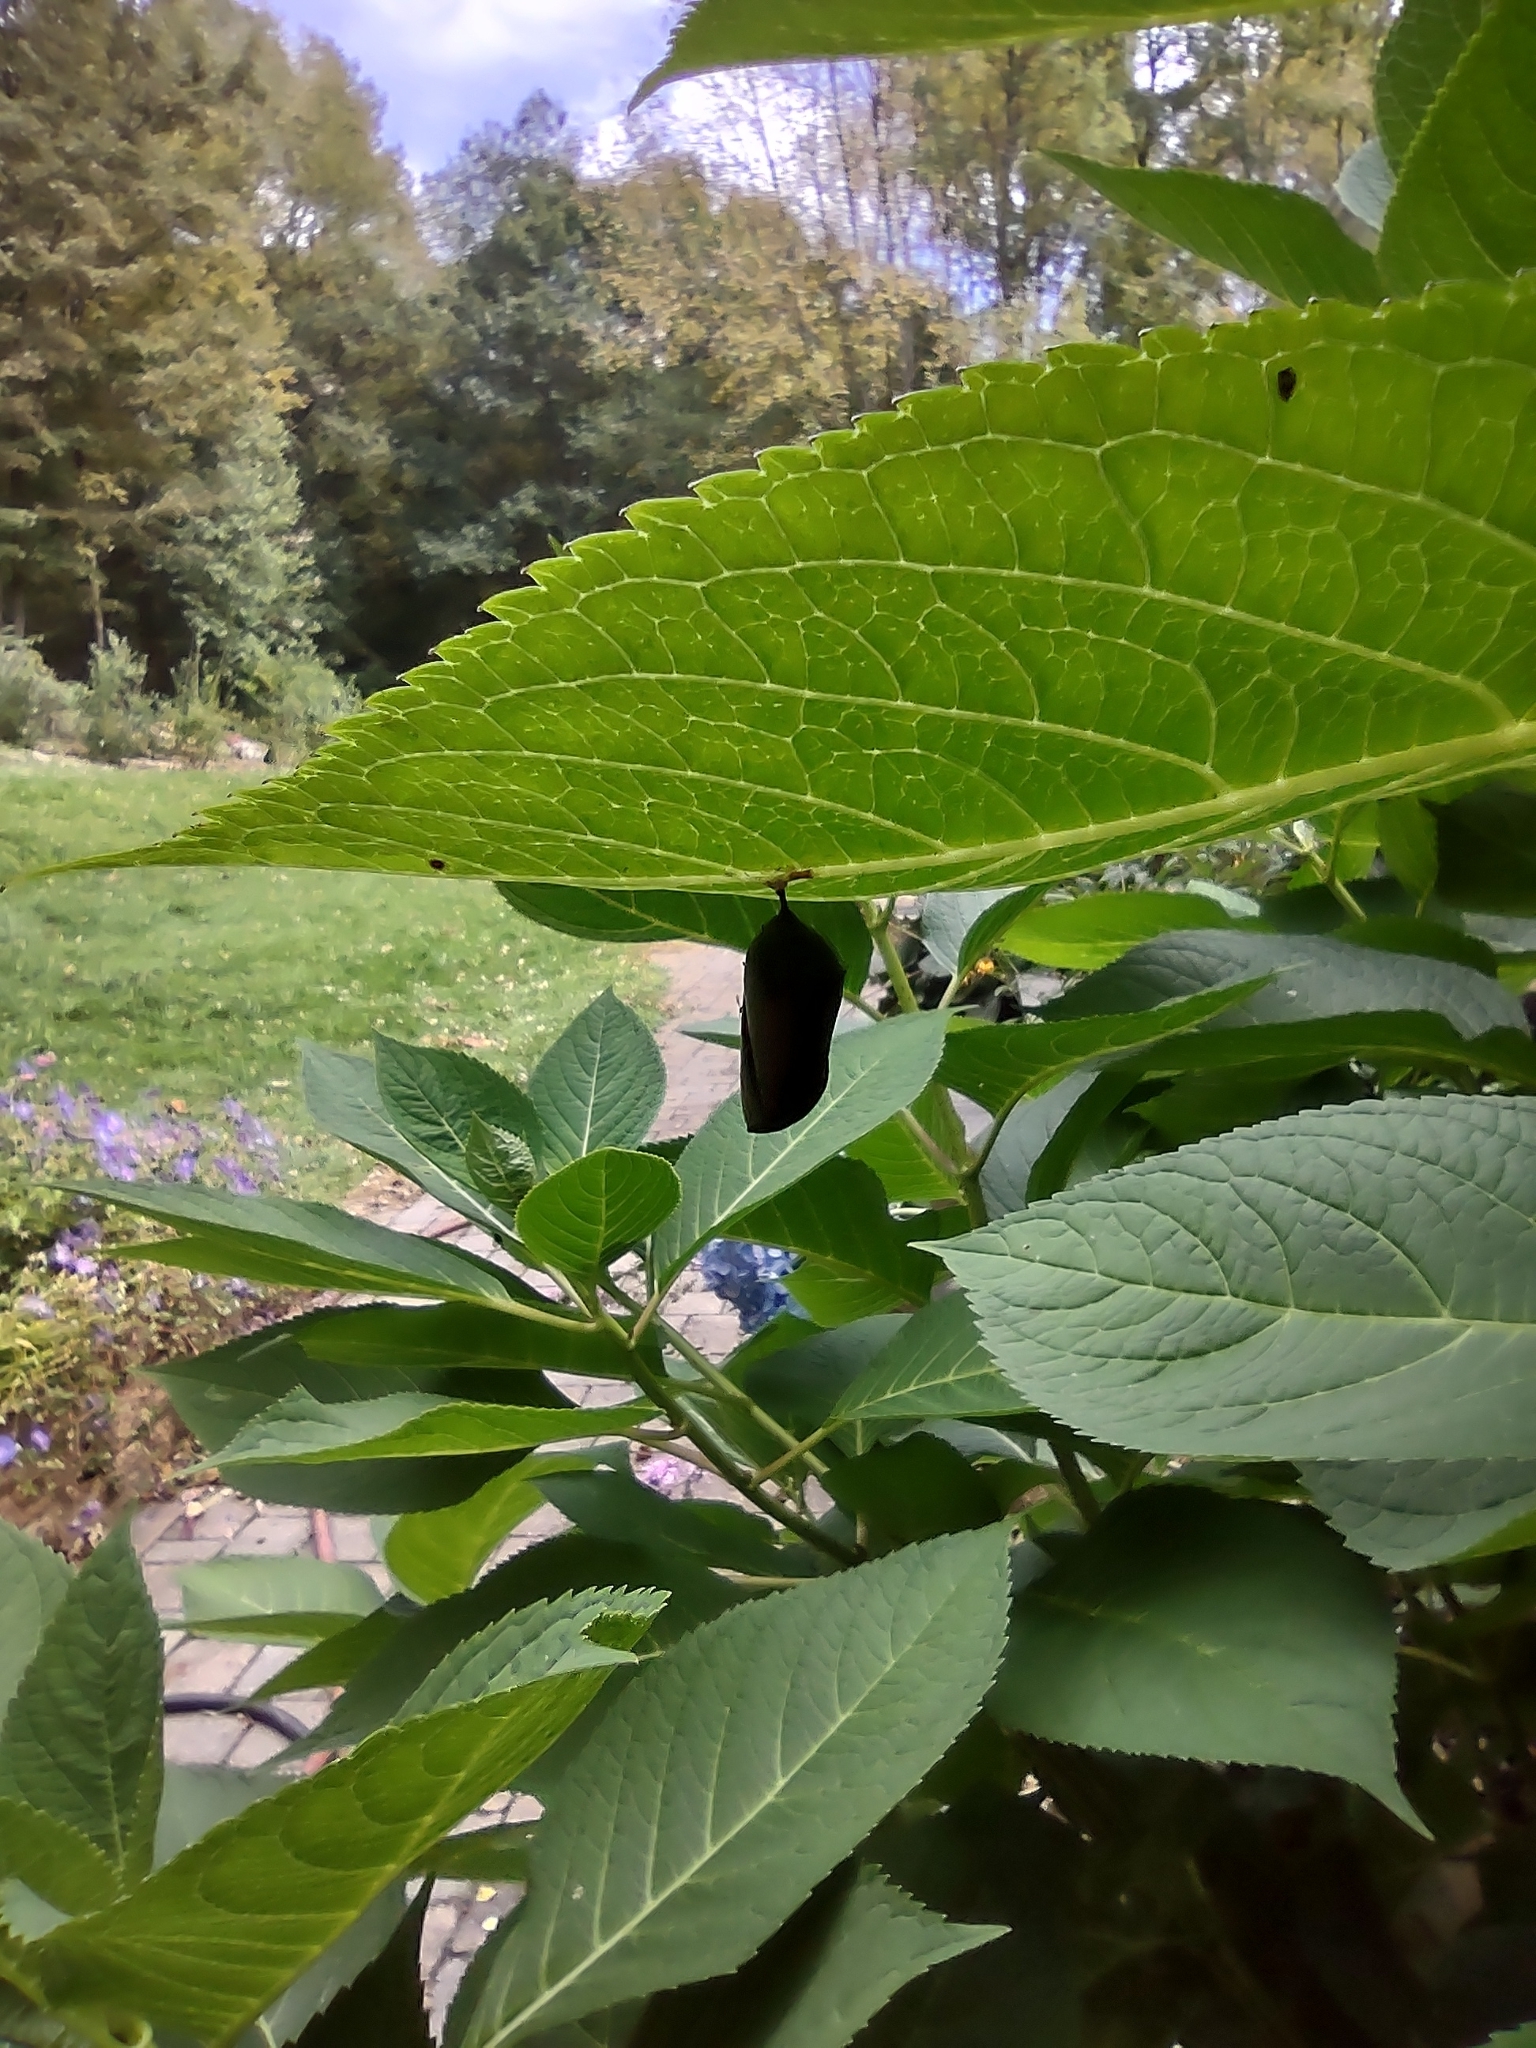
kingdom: Animalia
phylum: Arthropoda
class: Insecta
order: Lepidoptera
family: Nymphalidae
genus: Danaus
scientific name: Danaus plexippus
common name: Monarch
